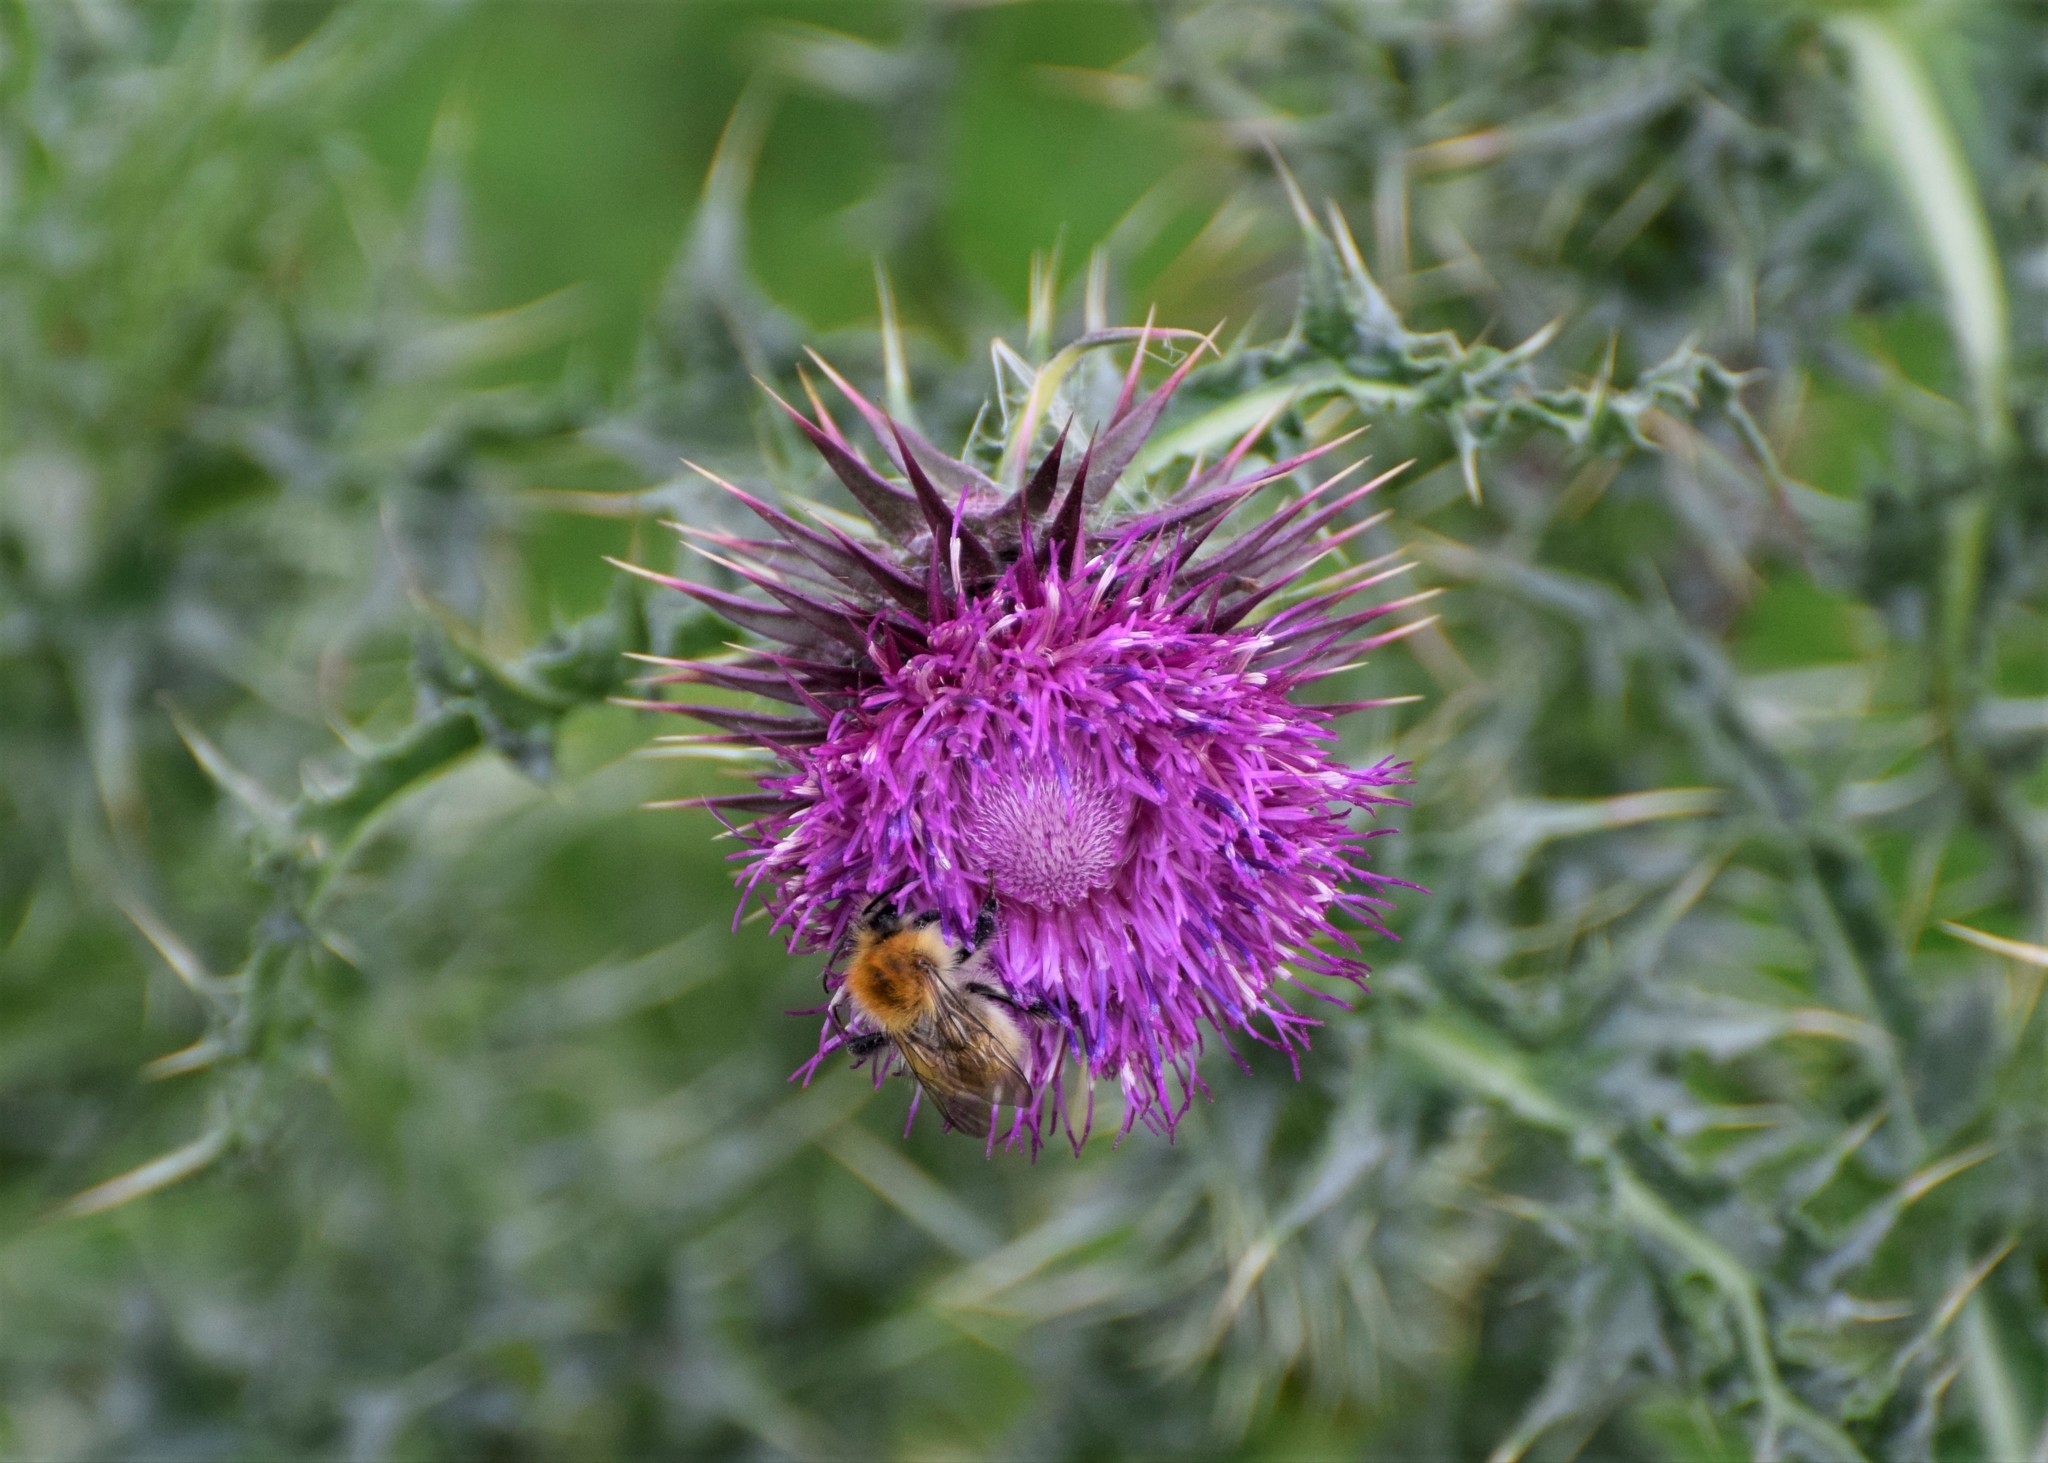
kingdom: Plantae
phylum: Tracheophyta
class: Magnoliopsida
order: Asterales
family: Asteraceae
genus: Carduus
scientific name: Carduus nutans
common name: Musk thistle
